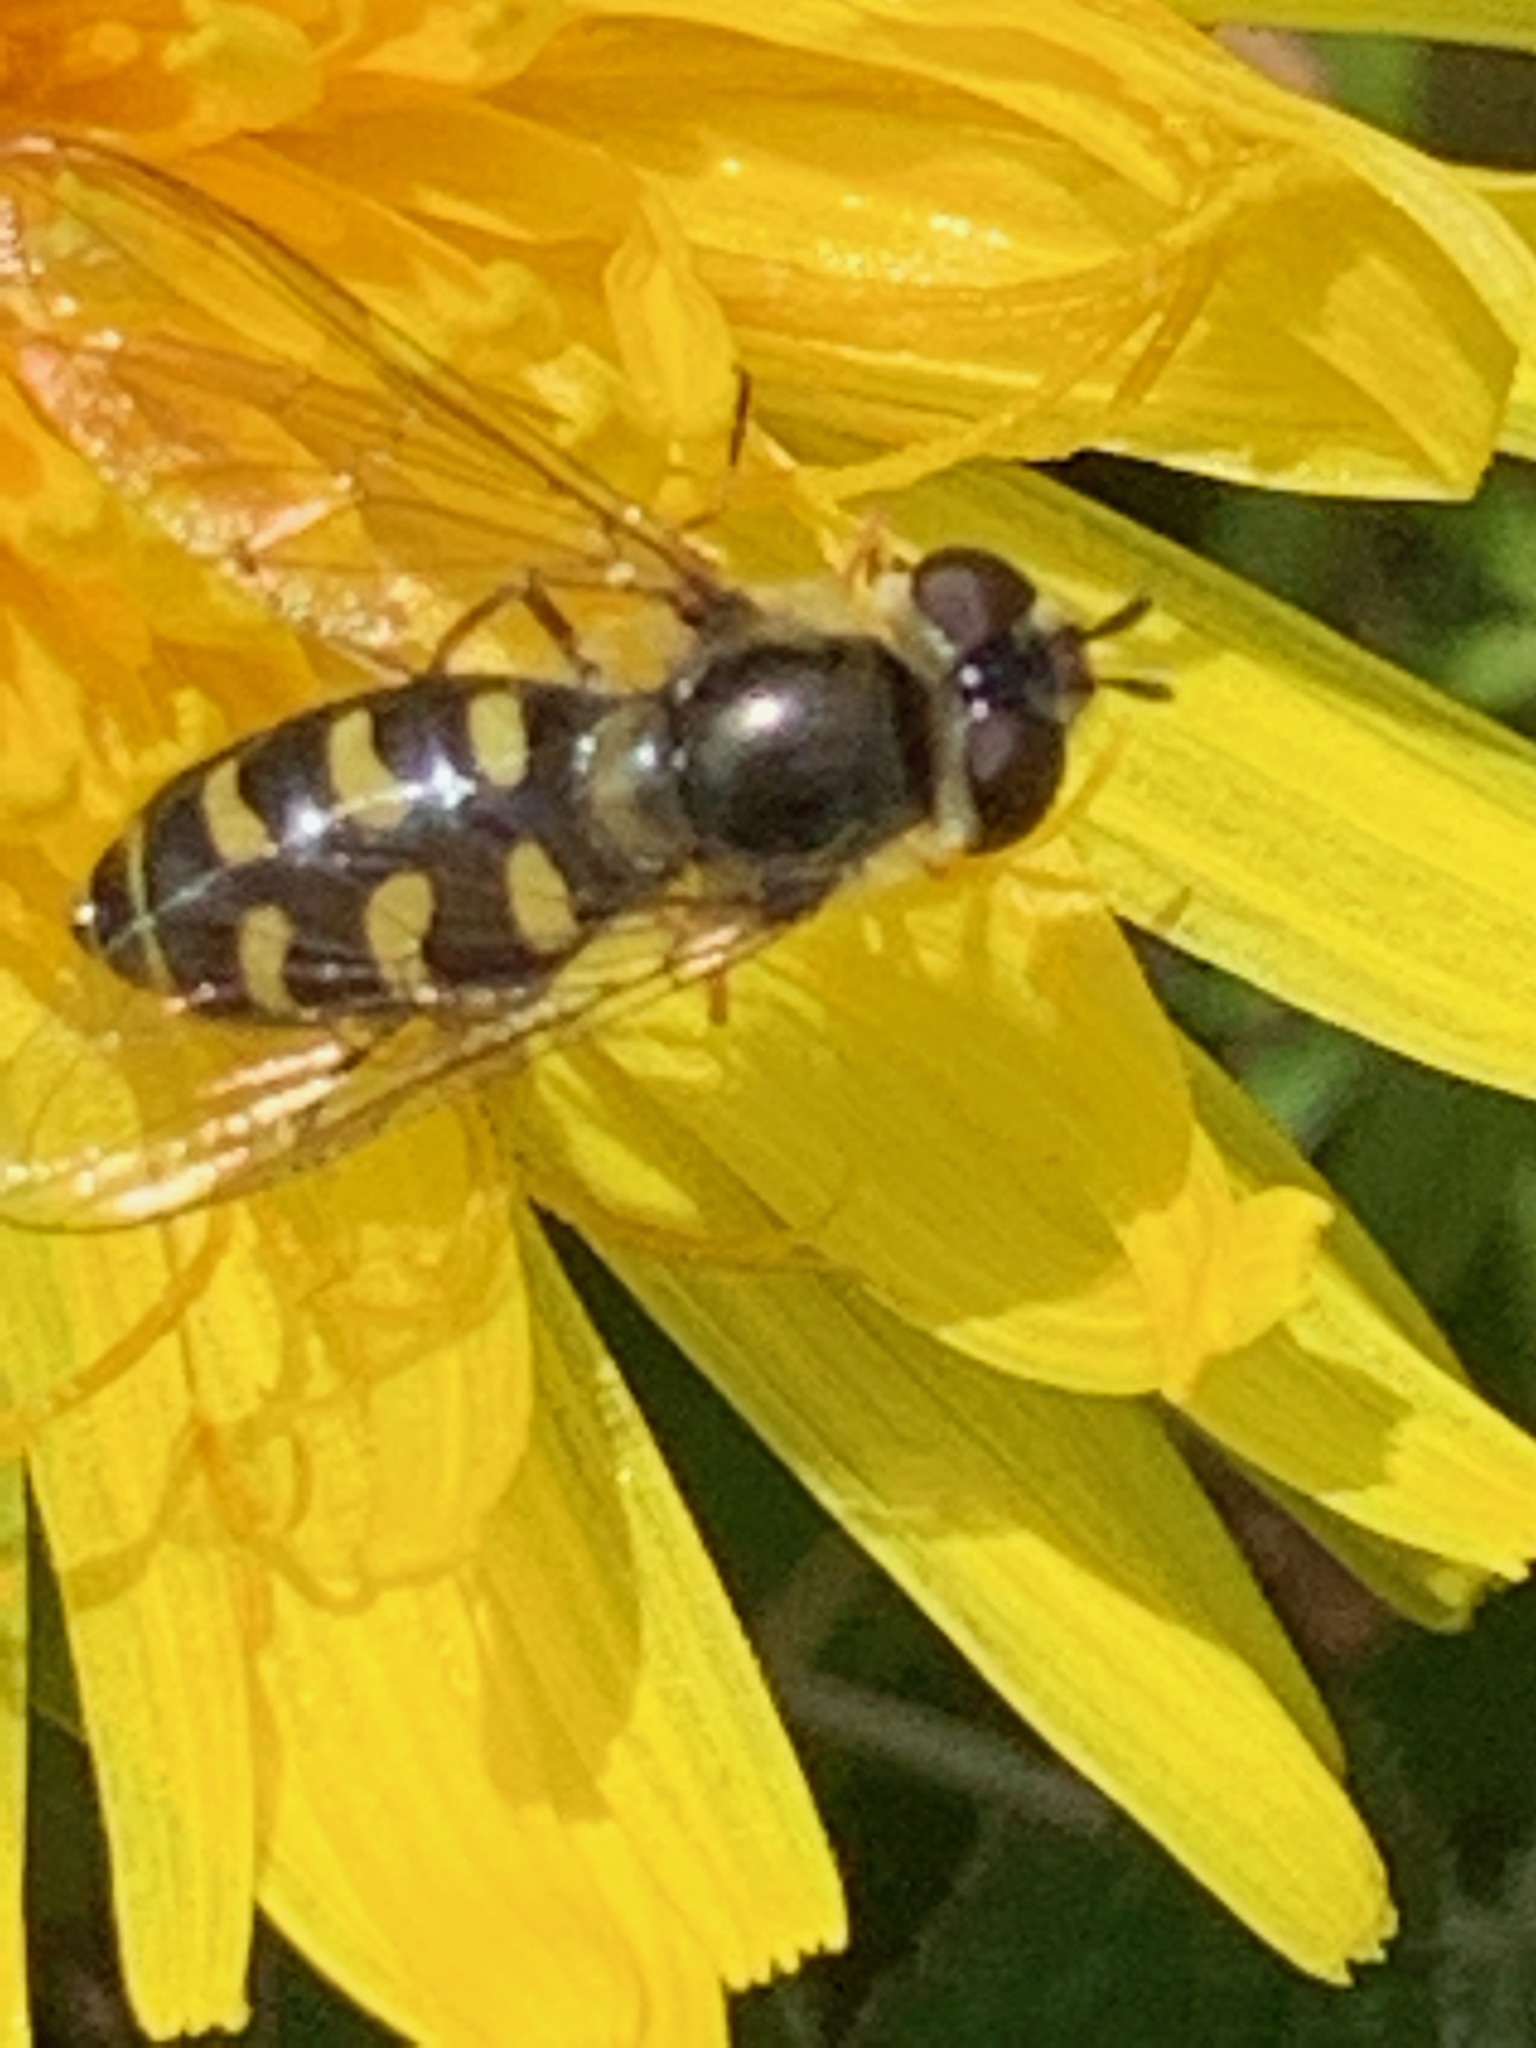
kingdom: Animalia
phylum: Arthropoda
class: Insecta
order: Diptera
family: Syrphidae
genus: Eupeodes
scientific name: Eupeodes luniger
